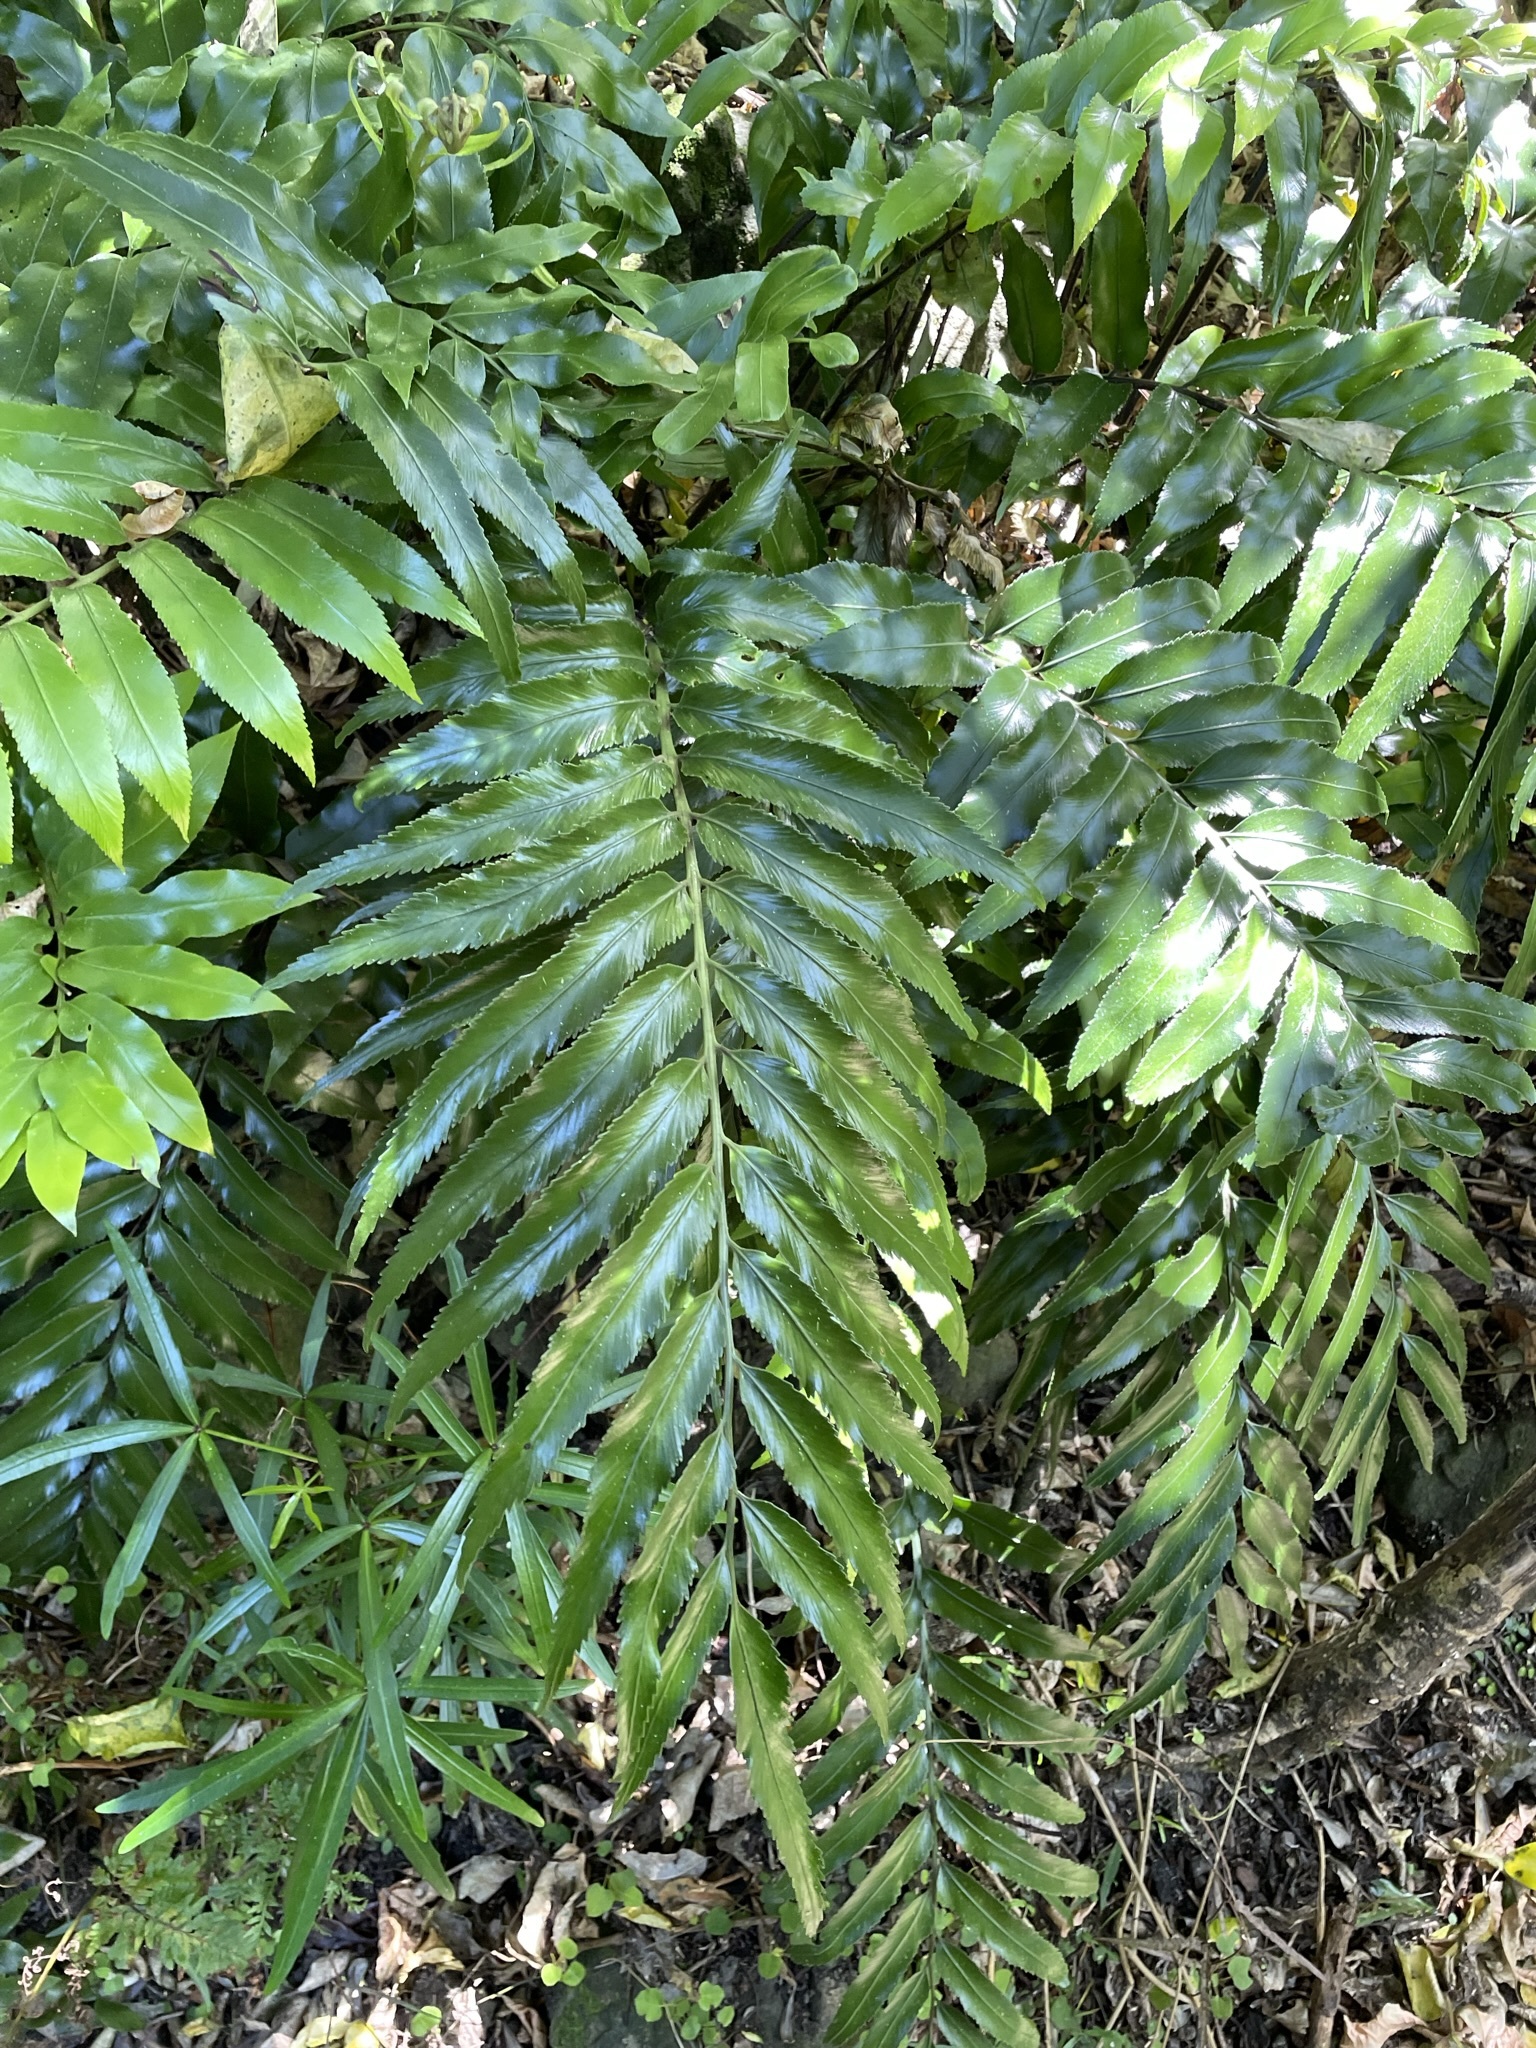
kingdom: Plantae
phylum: Tracheophyta
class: Polypodiopsida
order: Polypodiales
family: Aspleniaceae
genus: Asplenium
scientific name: Asplenium oblongifolium
